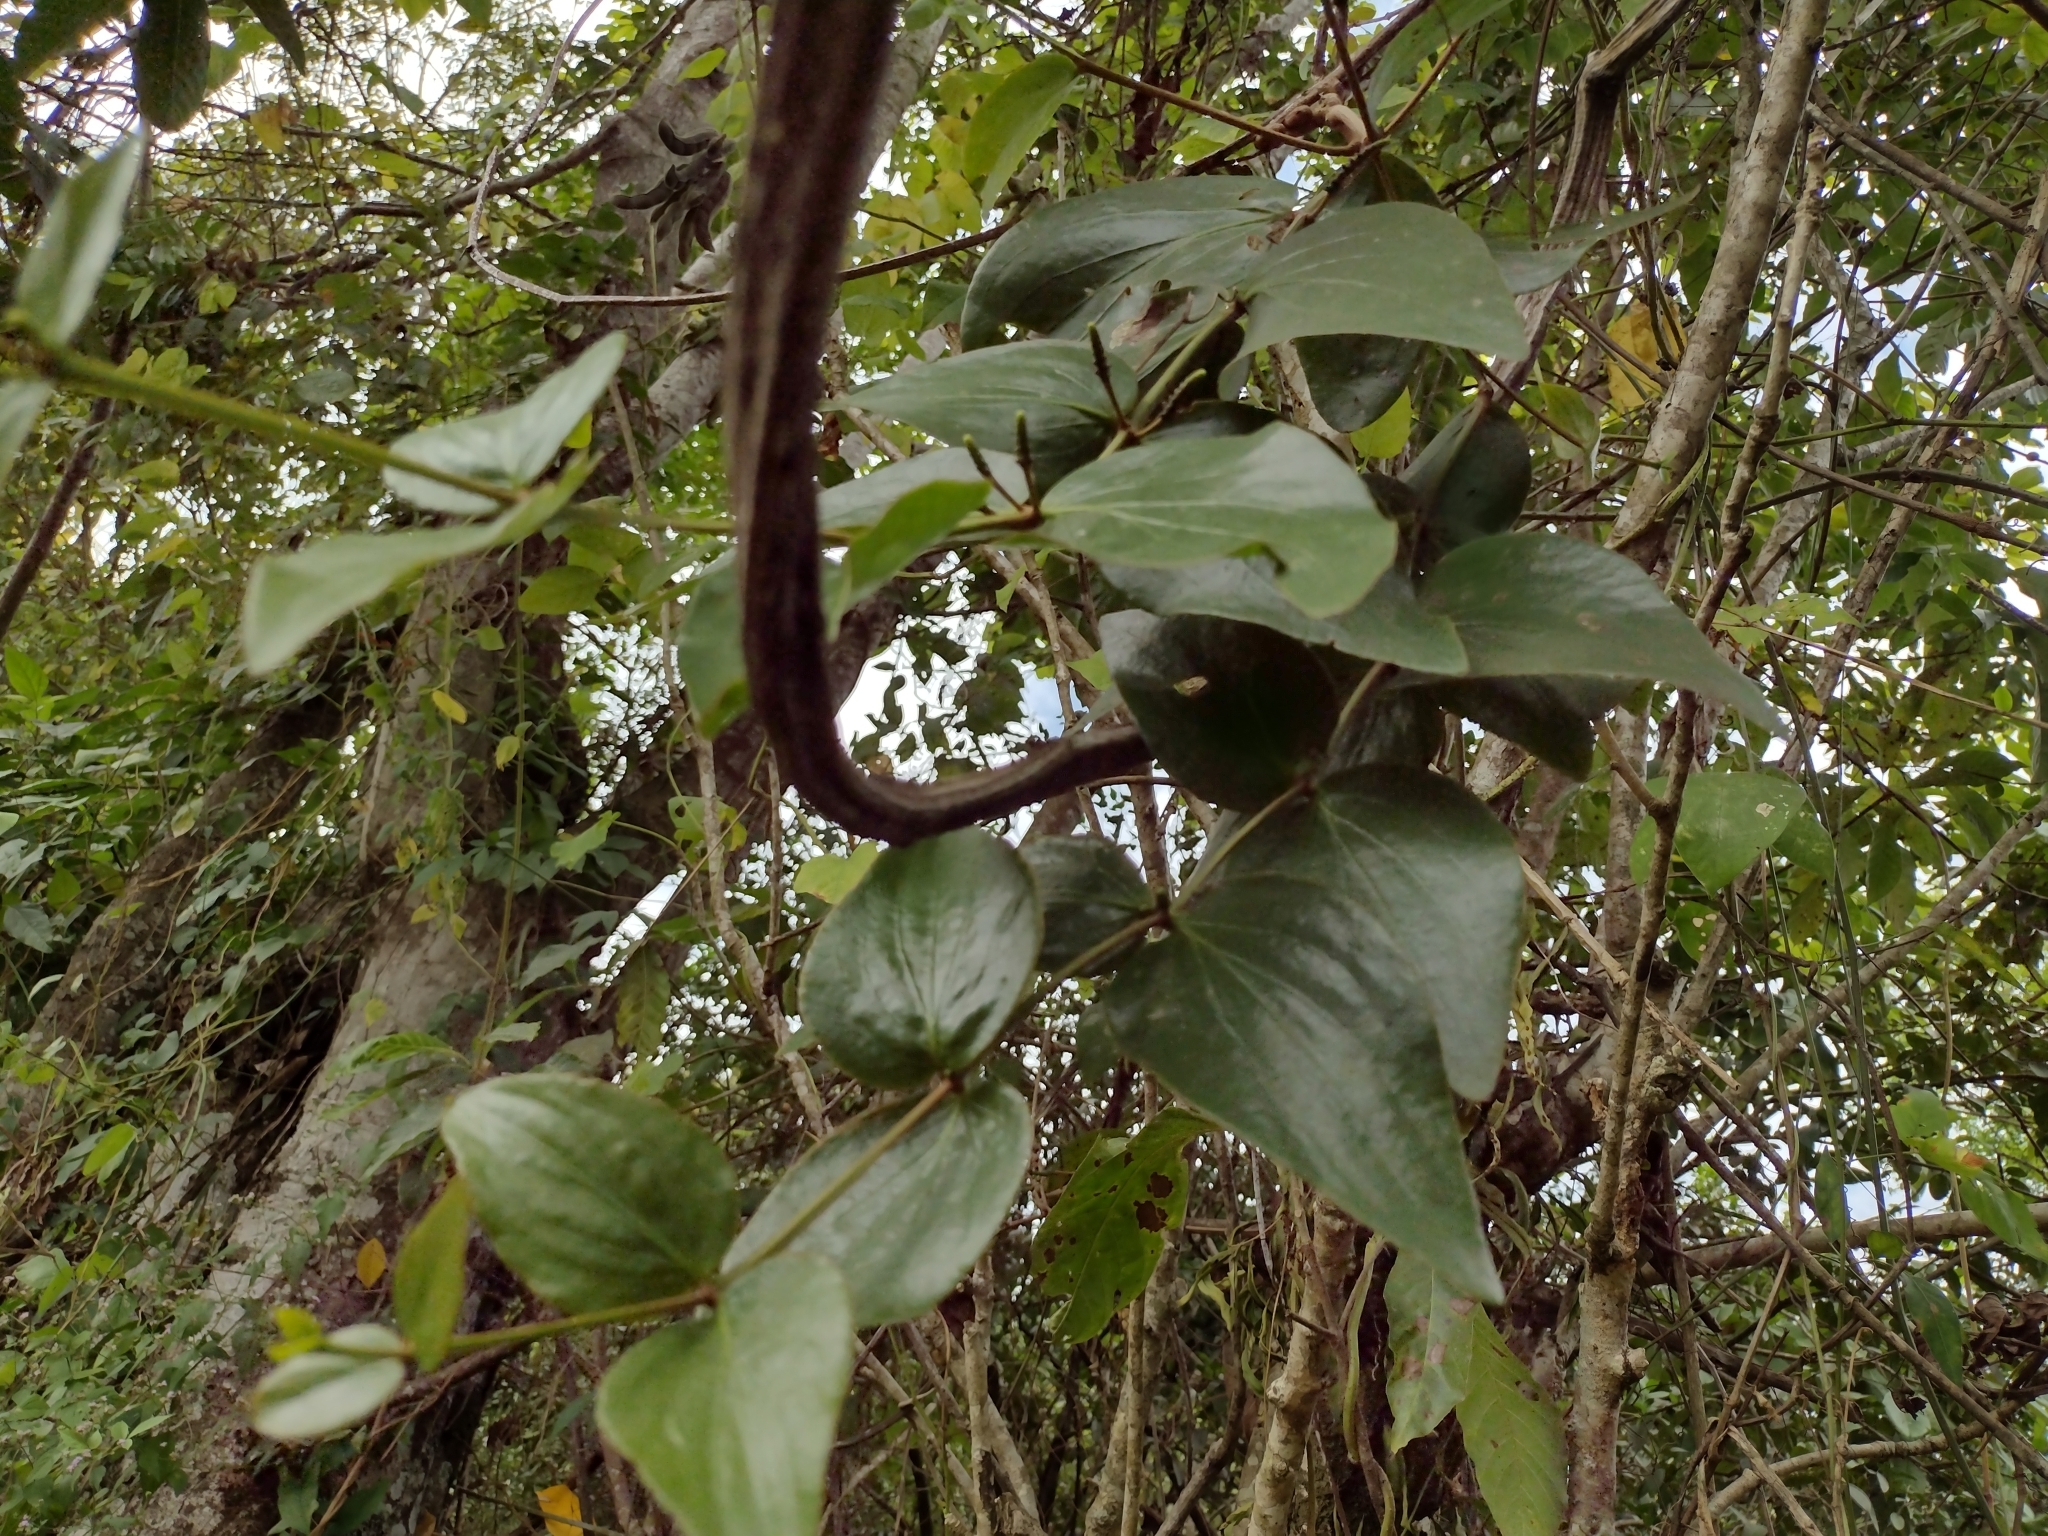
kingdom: Plantae
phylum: Tracheophyta
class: Magnoliopsida
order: Santalales
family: Loranthaceae
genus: Oryctanthus
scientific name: Oryctanthus cordifolius
